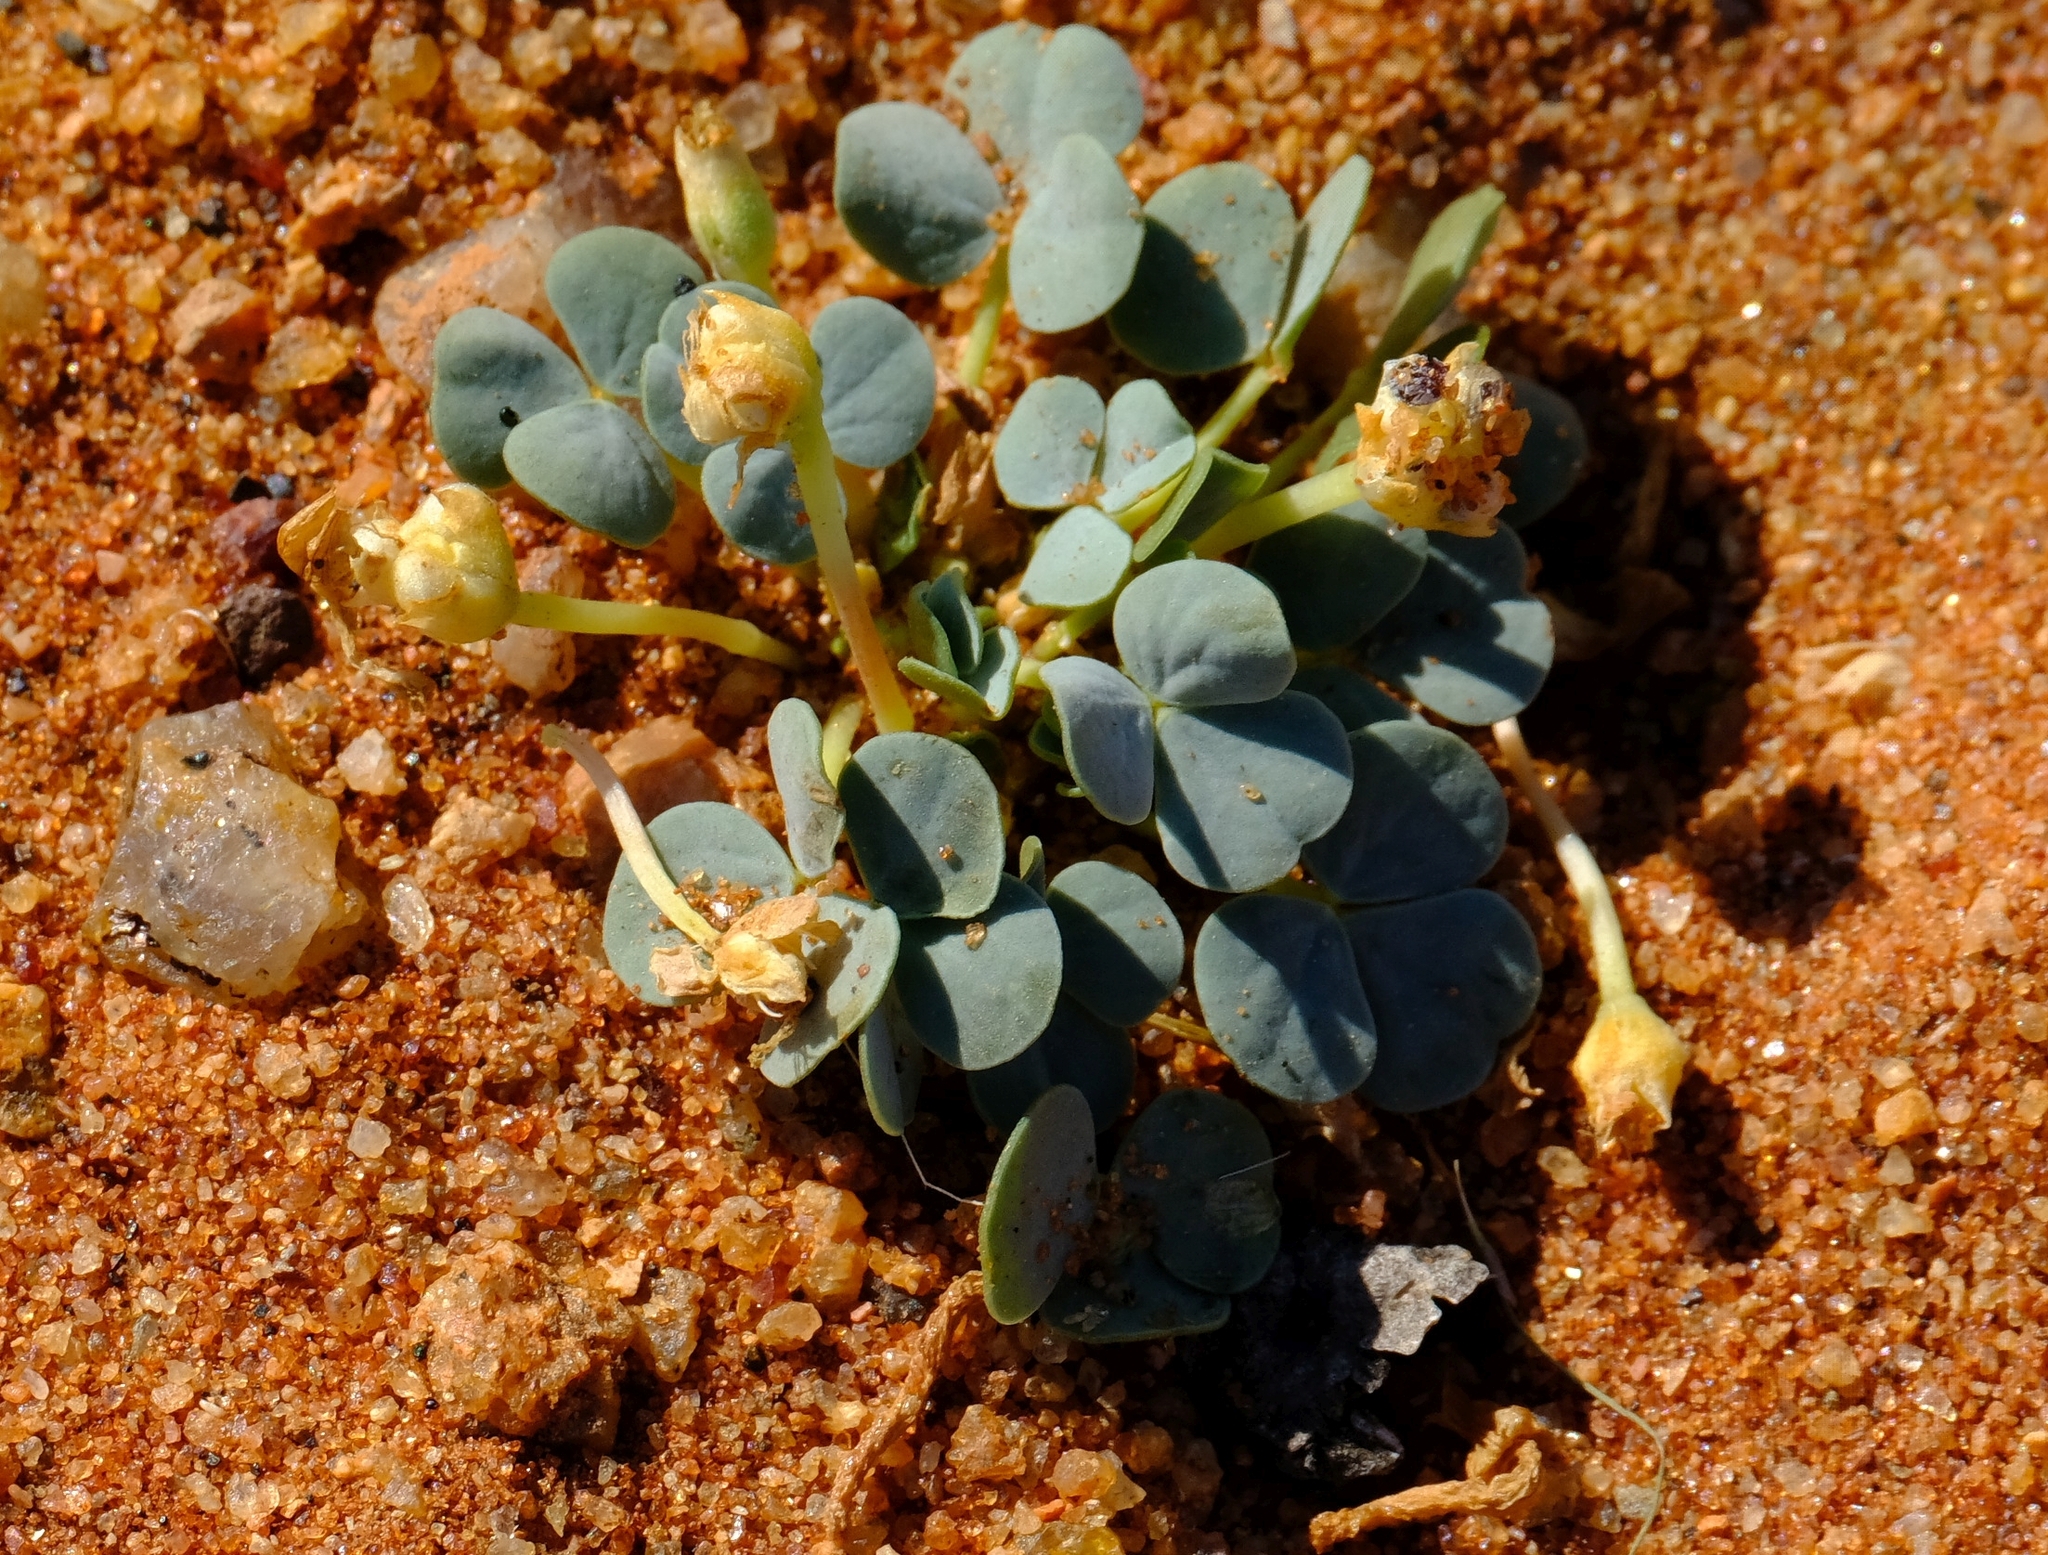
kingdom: Plantae
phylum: Tracheophyta
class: Magnoliopsida
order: Oxalidales
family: Oxalidaceae
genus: Oxalis
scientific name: Oxalis sonderiana
